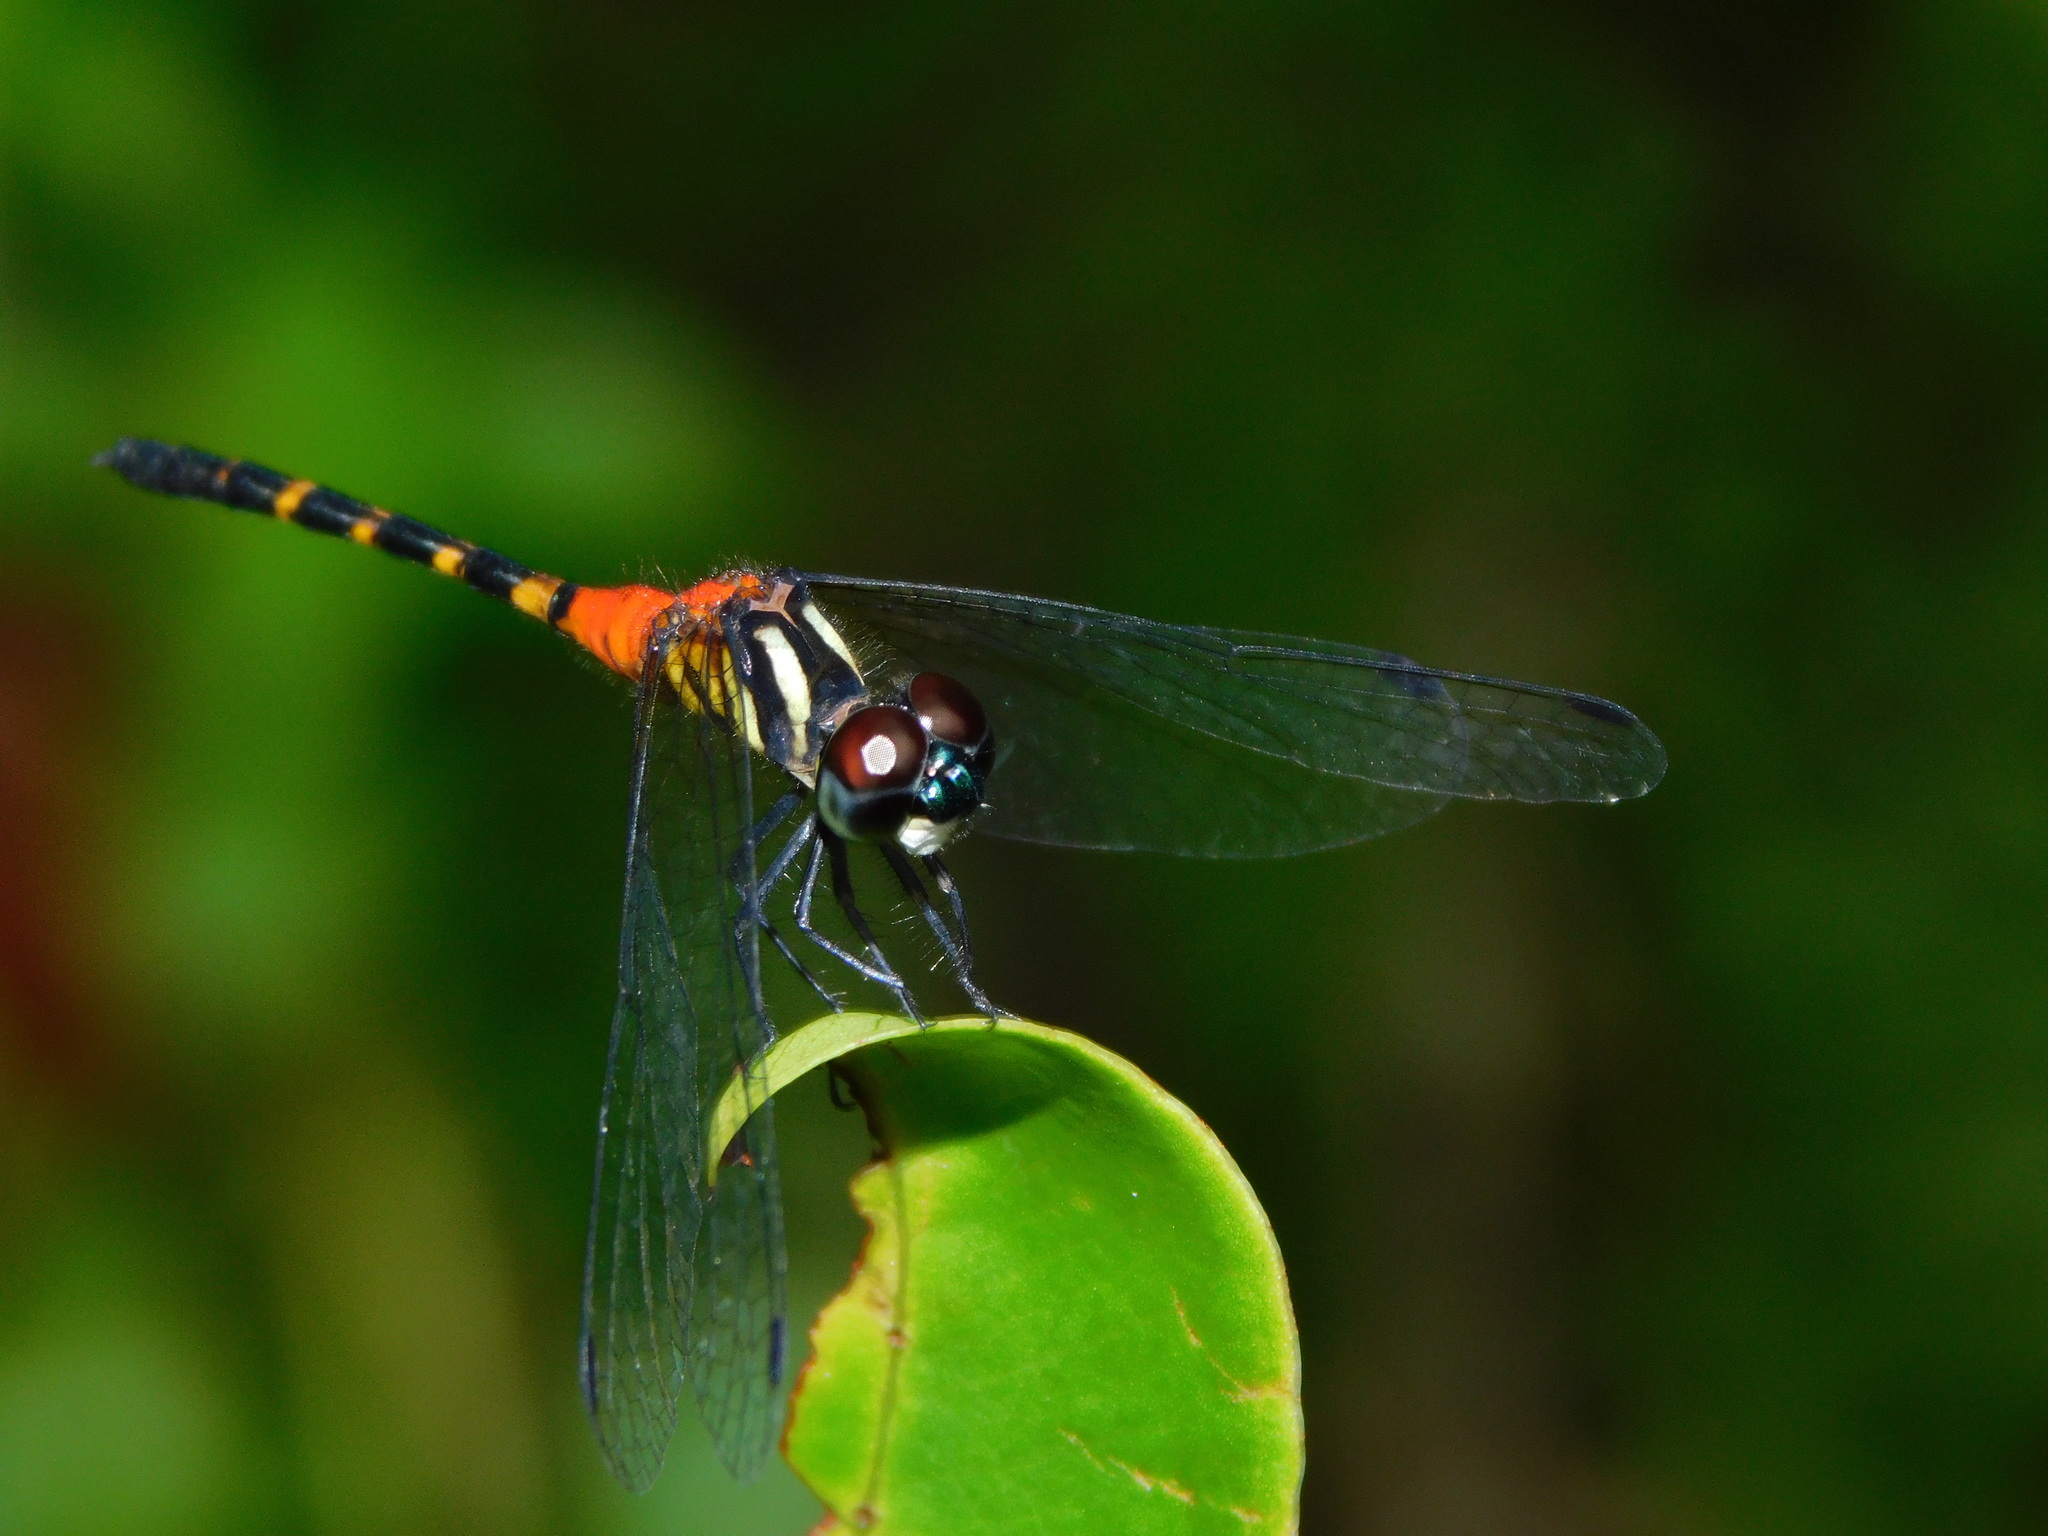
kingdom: Animalia
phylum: Arthropoda
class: Insecta
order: Odonata
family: Libellulidae
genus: Epithemis
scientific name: Epithemis mariae
